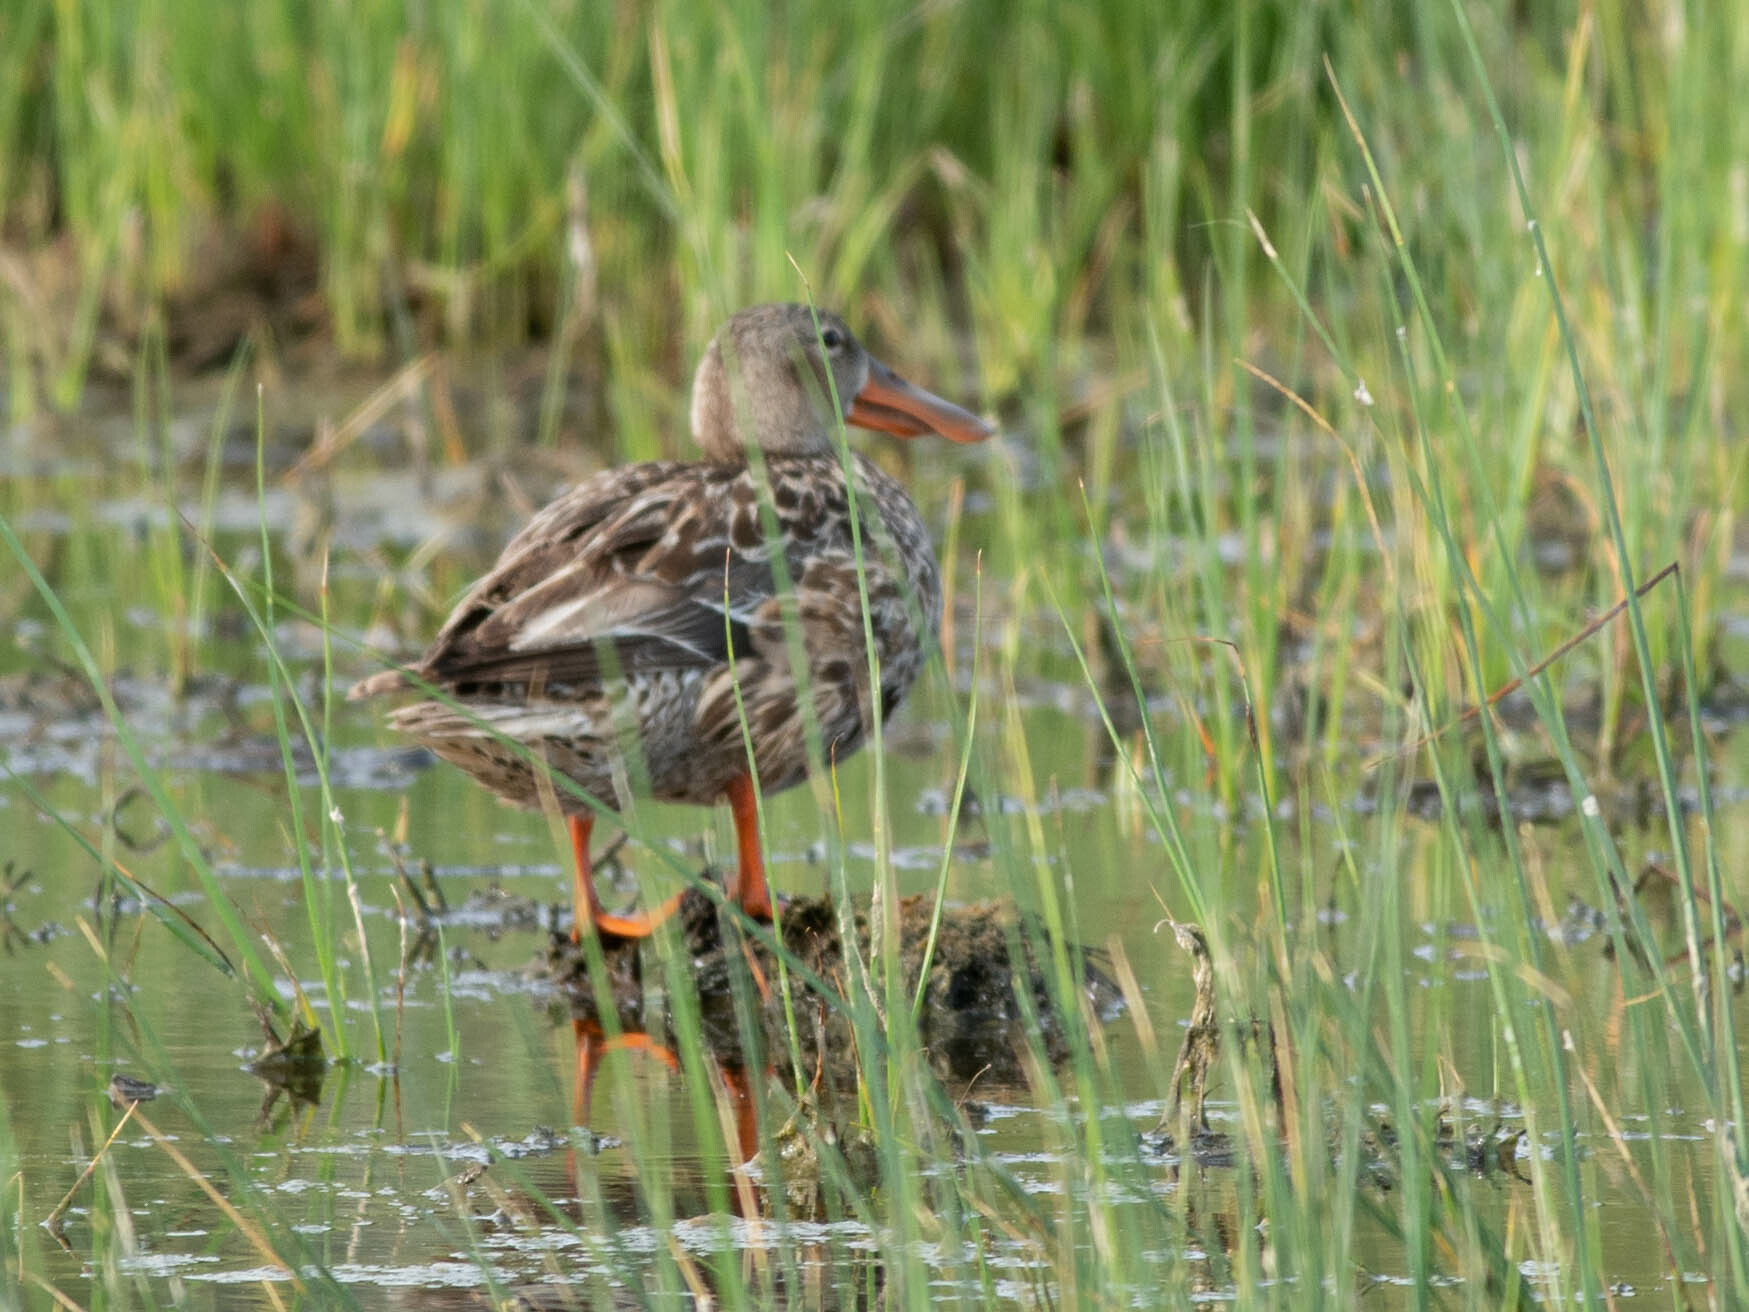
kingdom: Animalia
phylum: Chordata
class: Aves
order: Anseriformes
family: Anatidae
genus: Spatula
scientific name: Spatula clypeata
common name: Northern shoveler
